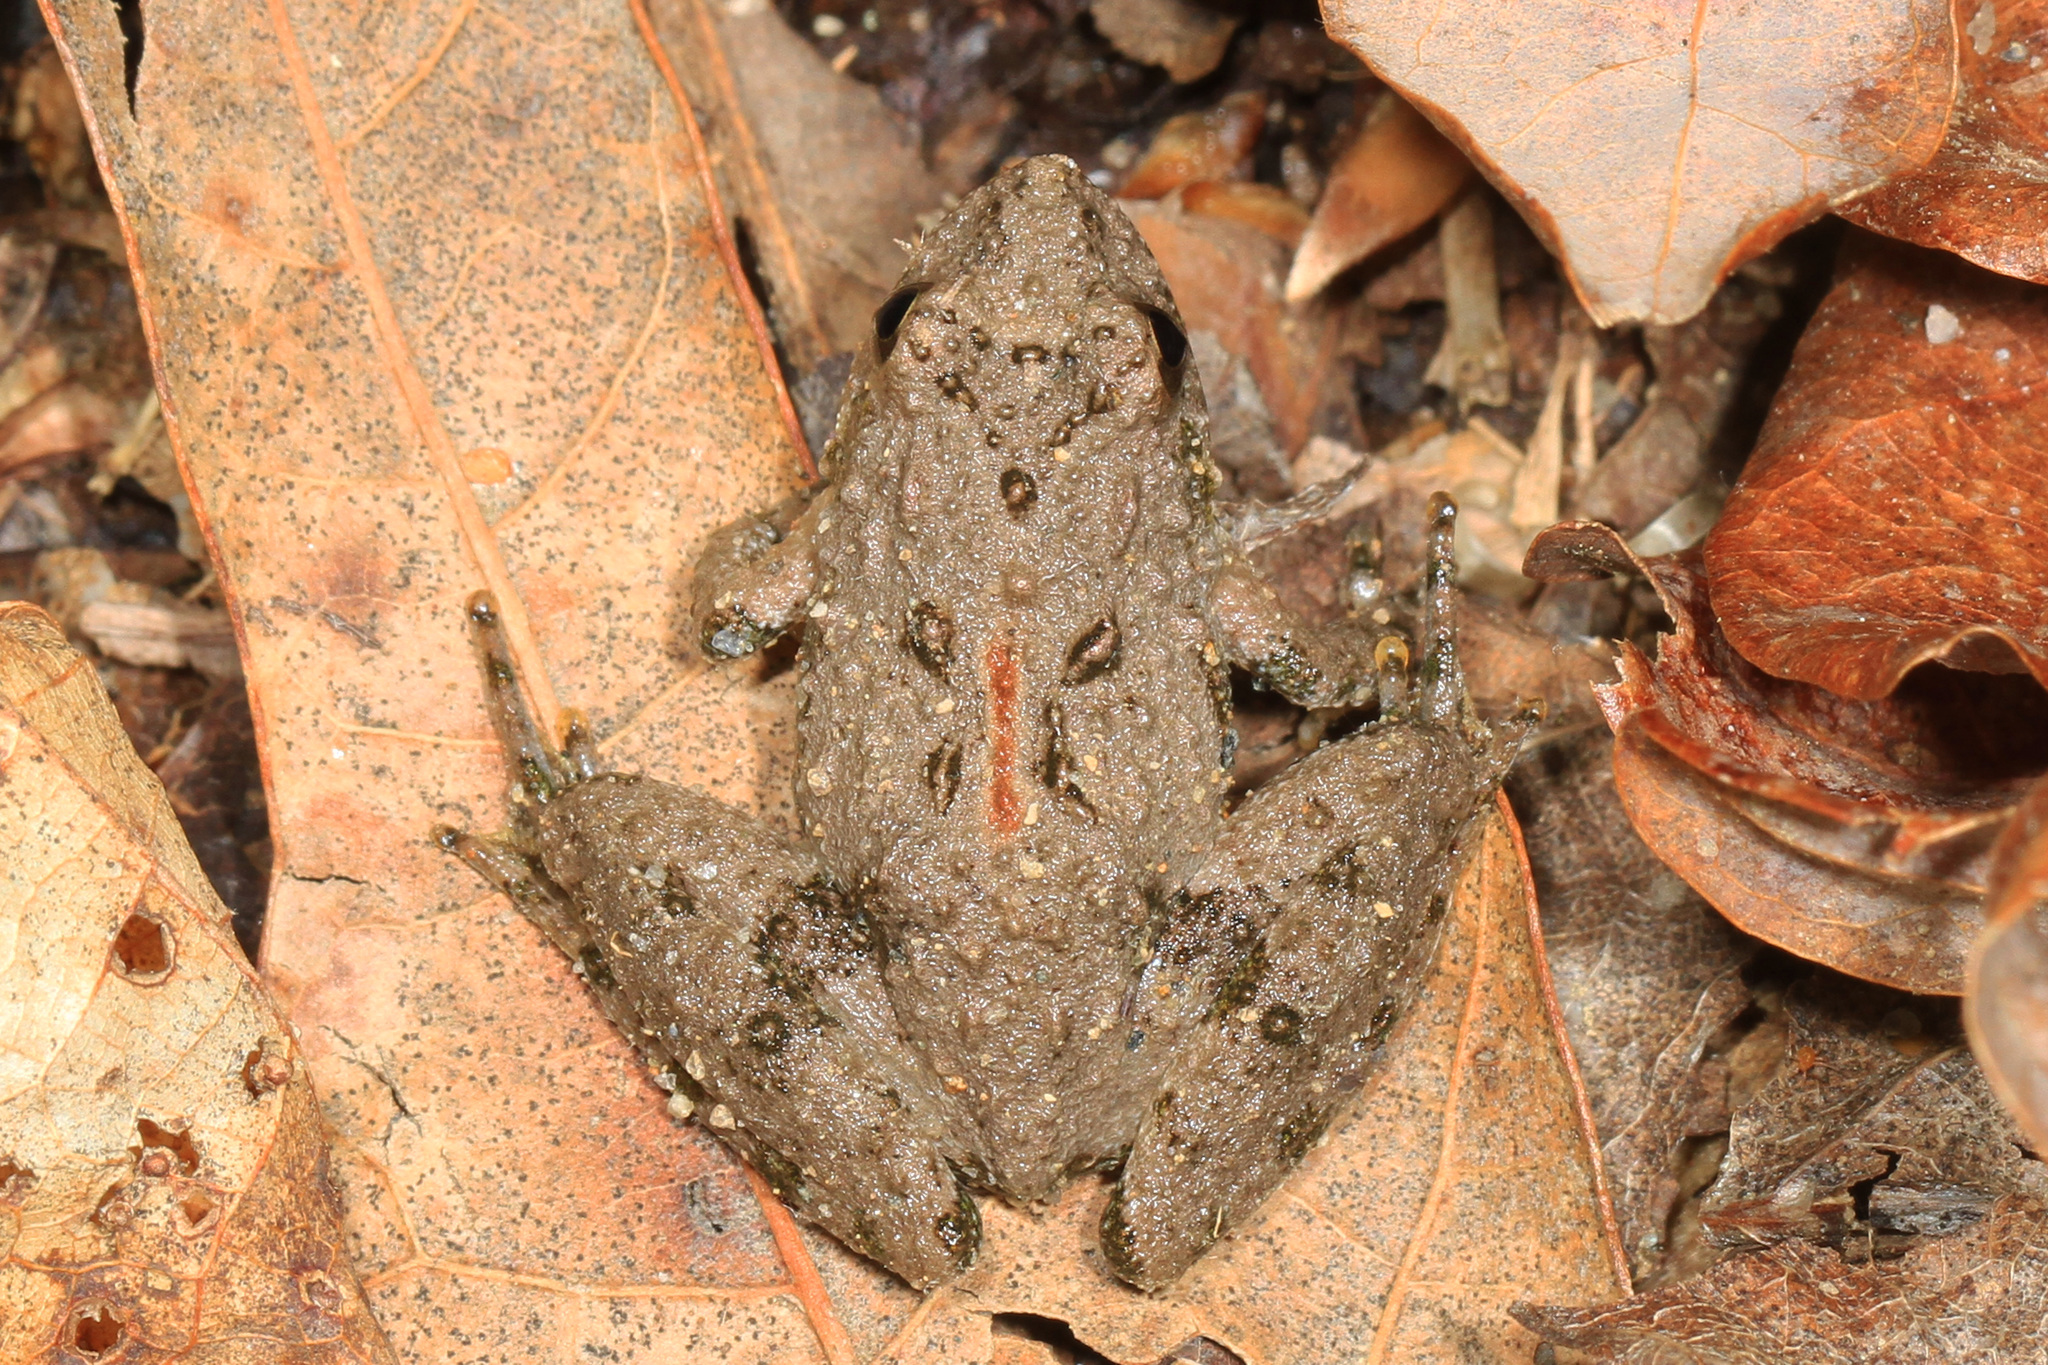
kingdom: Animalia
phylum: Chordata
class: Amphibia
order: Anura
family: Hylidae
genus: Acris
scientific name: Acris crepitans
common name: Northern cricket frog
